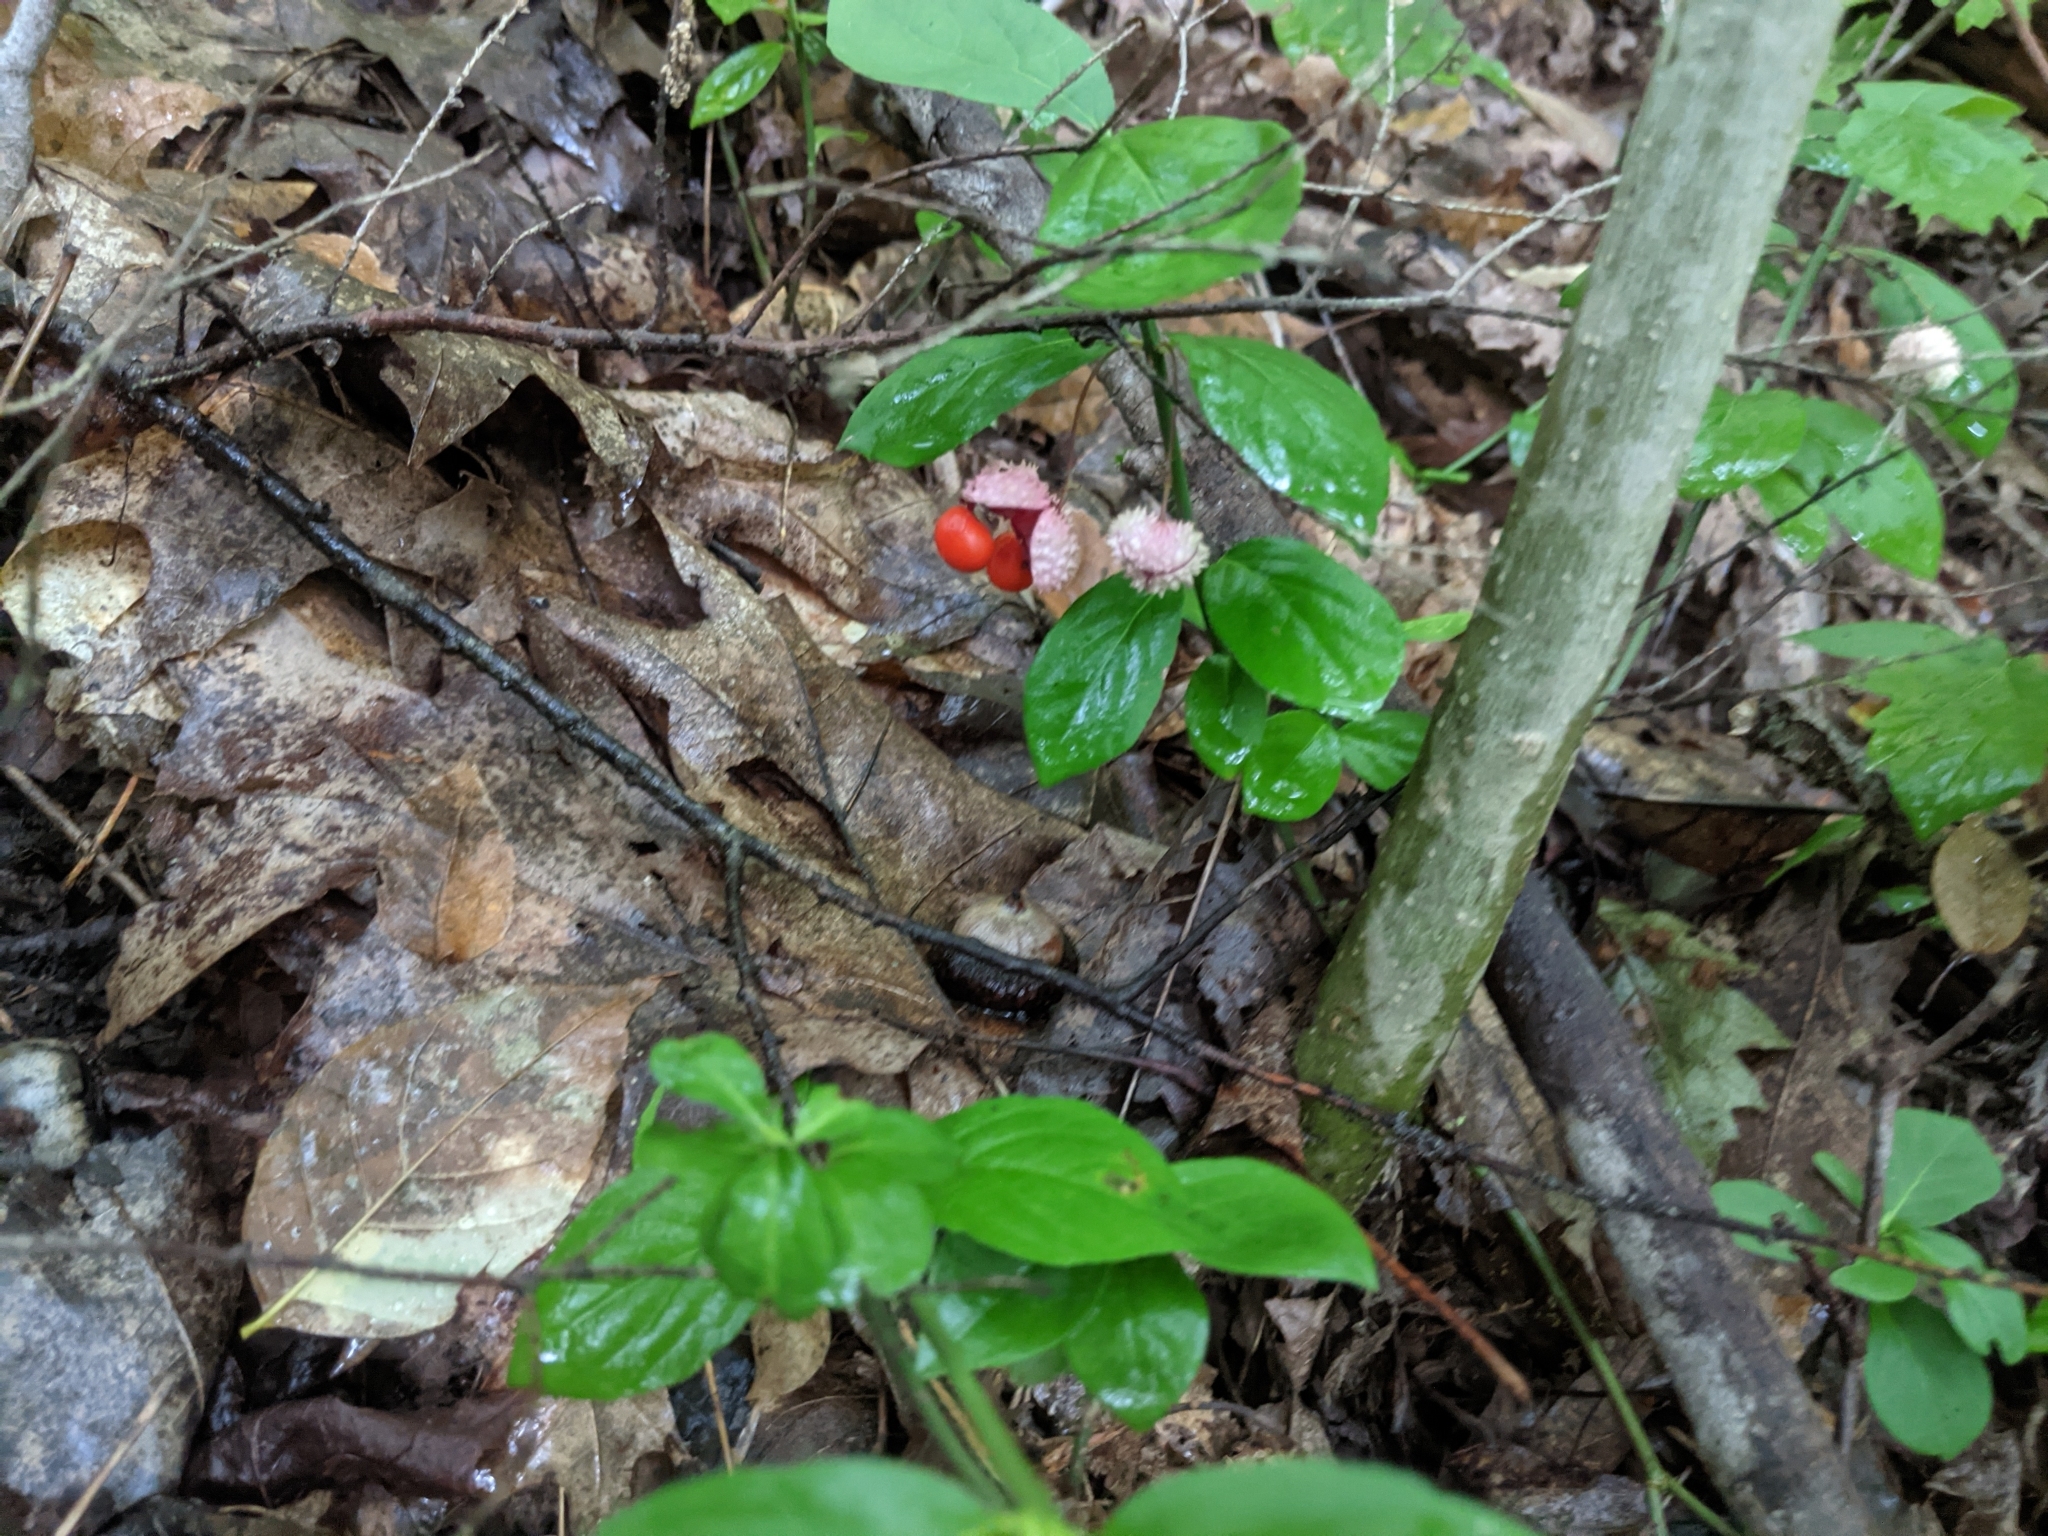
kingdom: Plantae
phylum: Tracheophyta
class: Magnoliopsida
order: Celastrales
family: Celastraceae
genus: Euonymus
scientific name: Euonymus obovatus
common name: Running strawberry-bush
